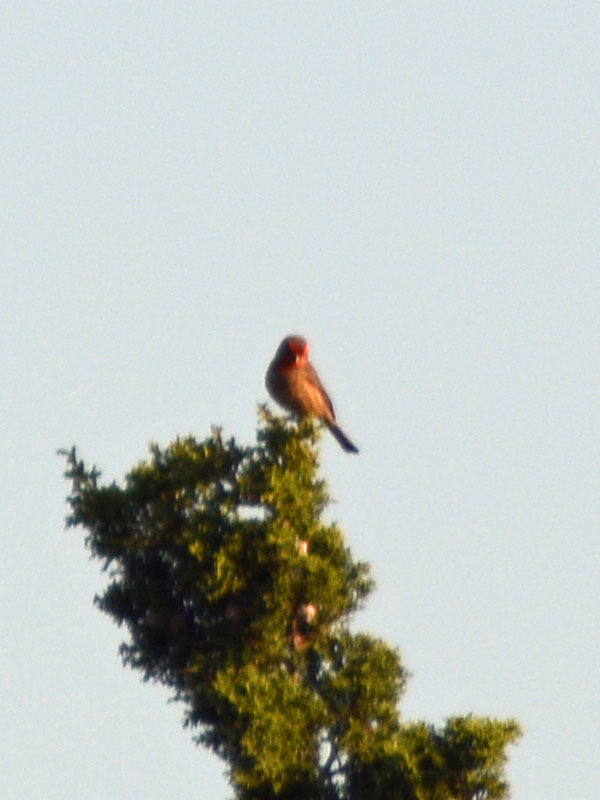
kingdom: Animalia
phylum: Chordata
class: Aves
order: Passeriformes
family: Fringillidae
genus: Haemorhous
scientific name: Haemorhous mexicanus
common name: House finch
